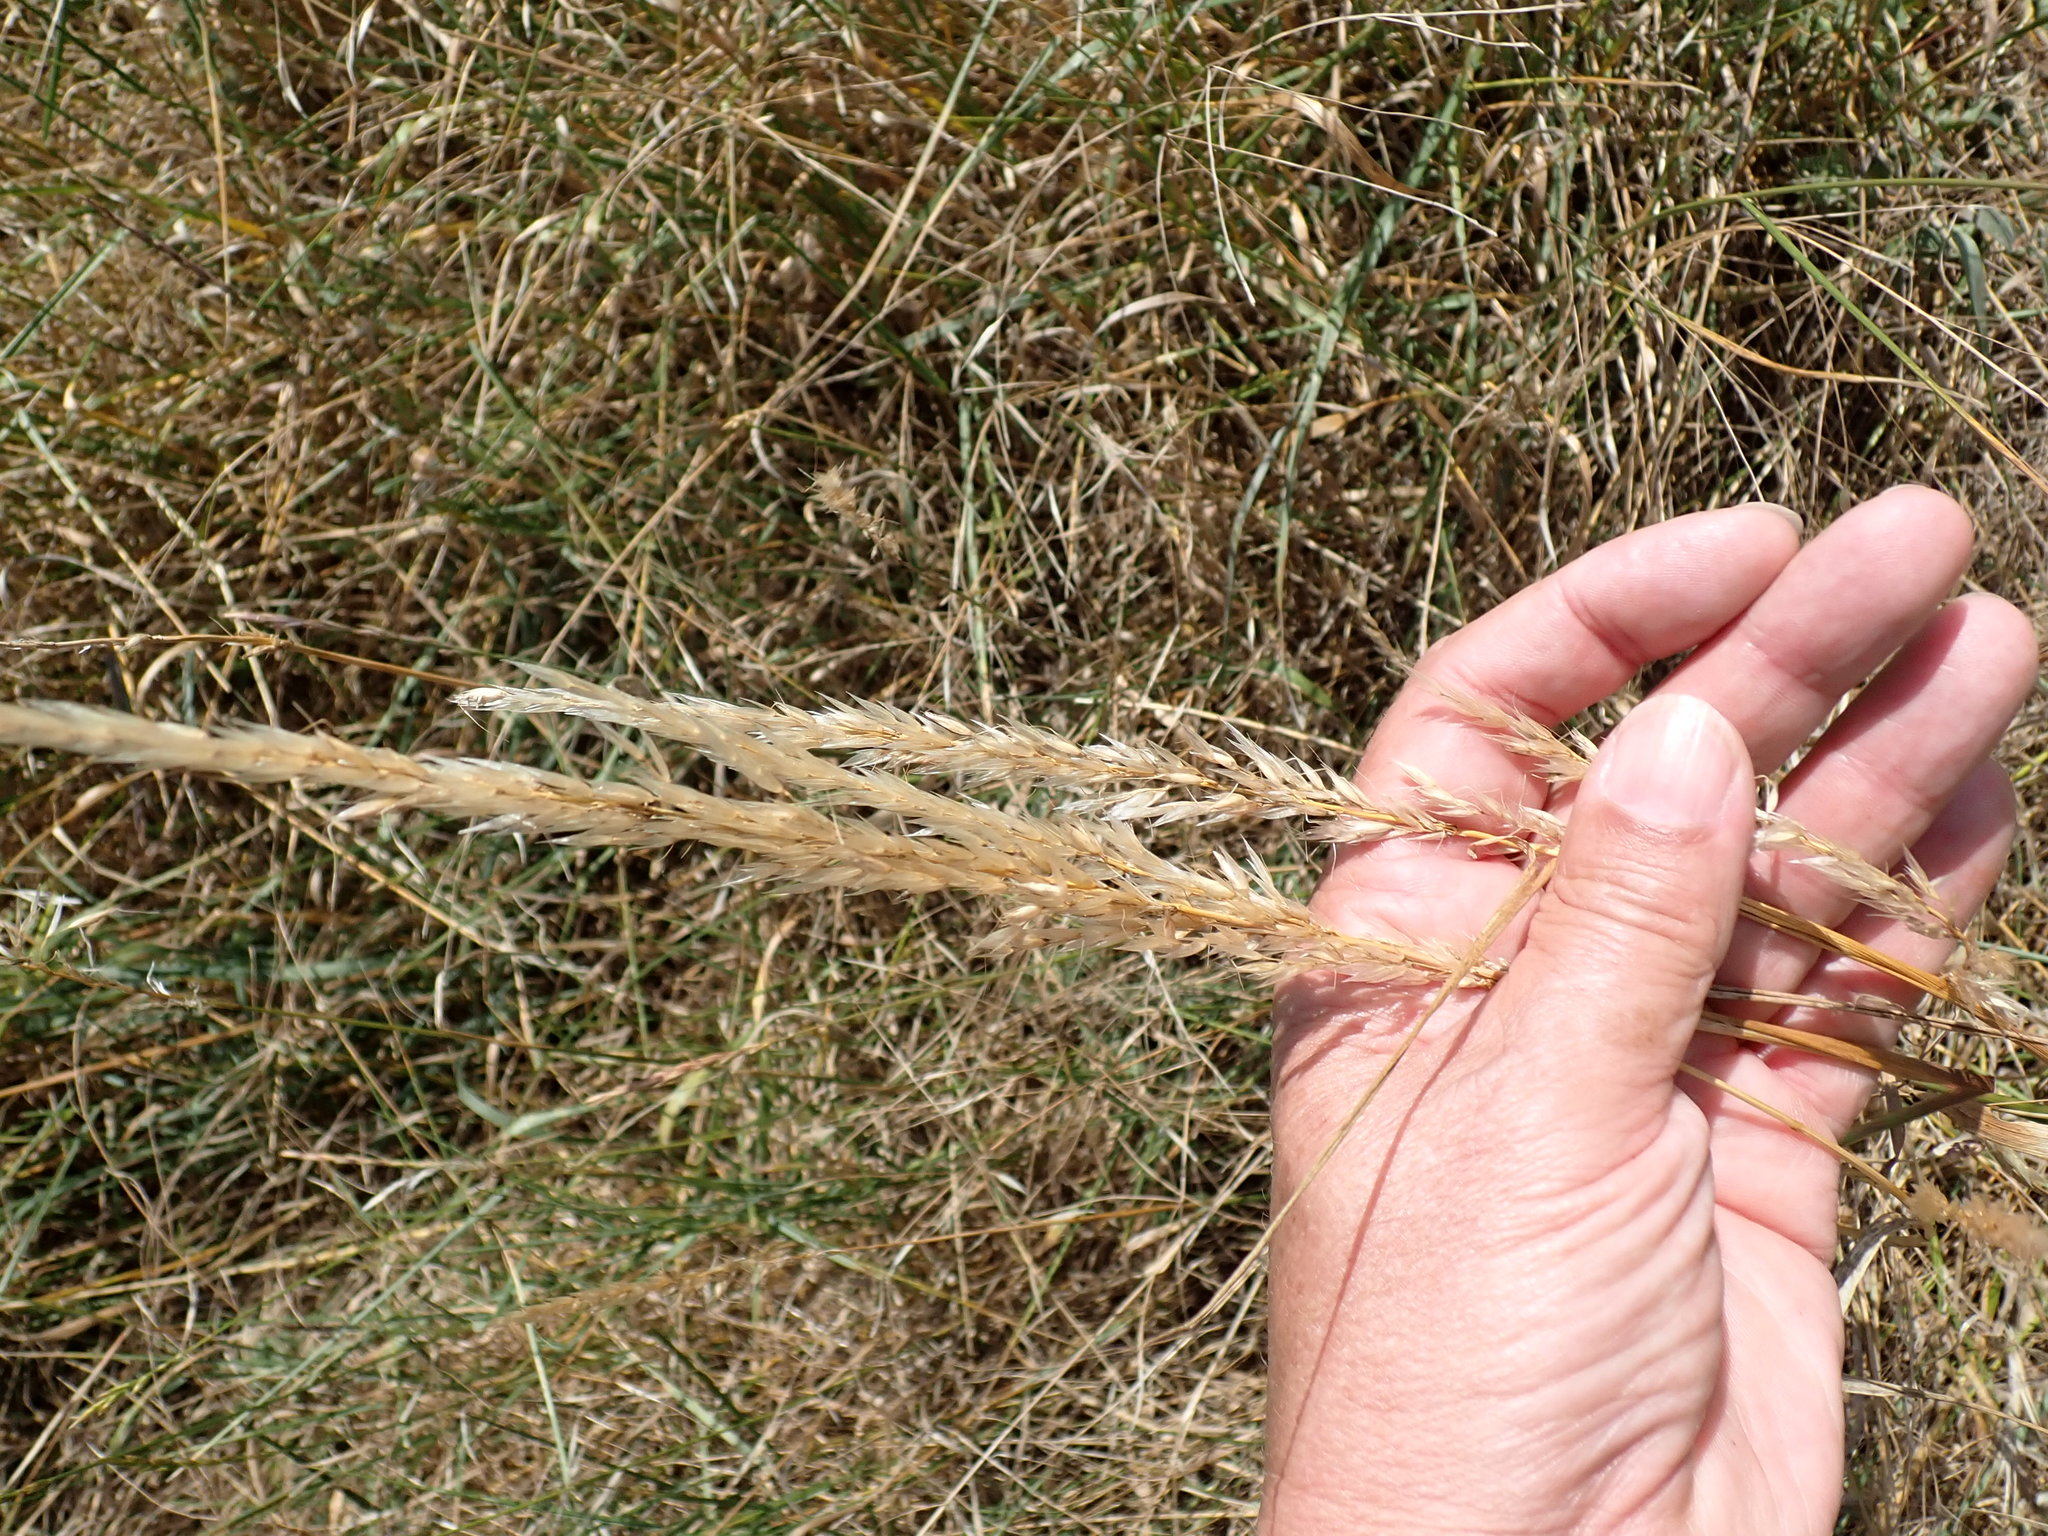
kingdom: Plantae
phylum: Tracheophyta
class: Liliopsida
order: Poales
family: Poaceae
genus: Arrhenatherum
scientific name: Arrhenatherum elatius
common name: Tall oatgrass
